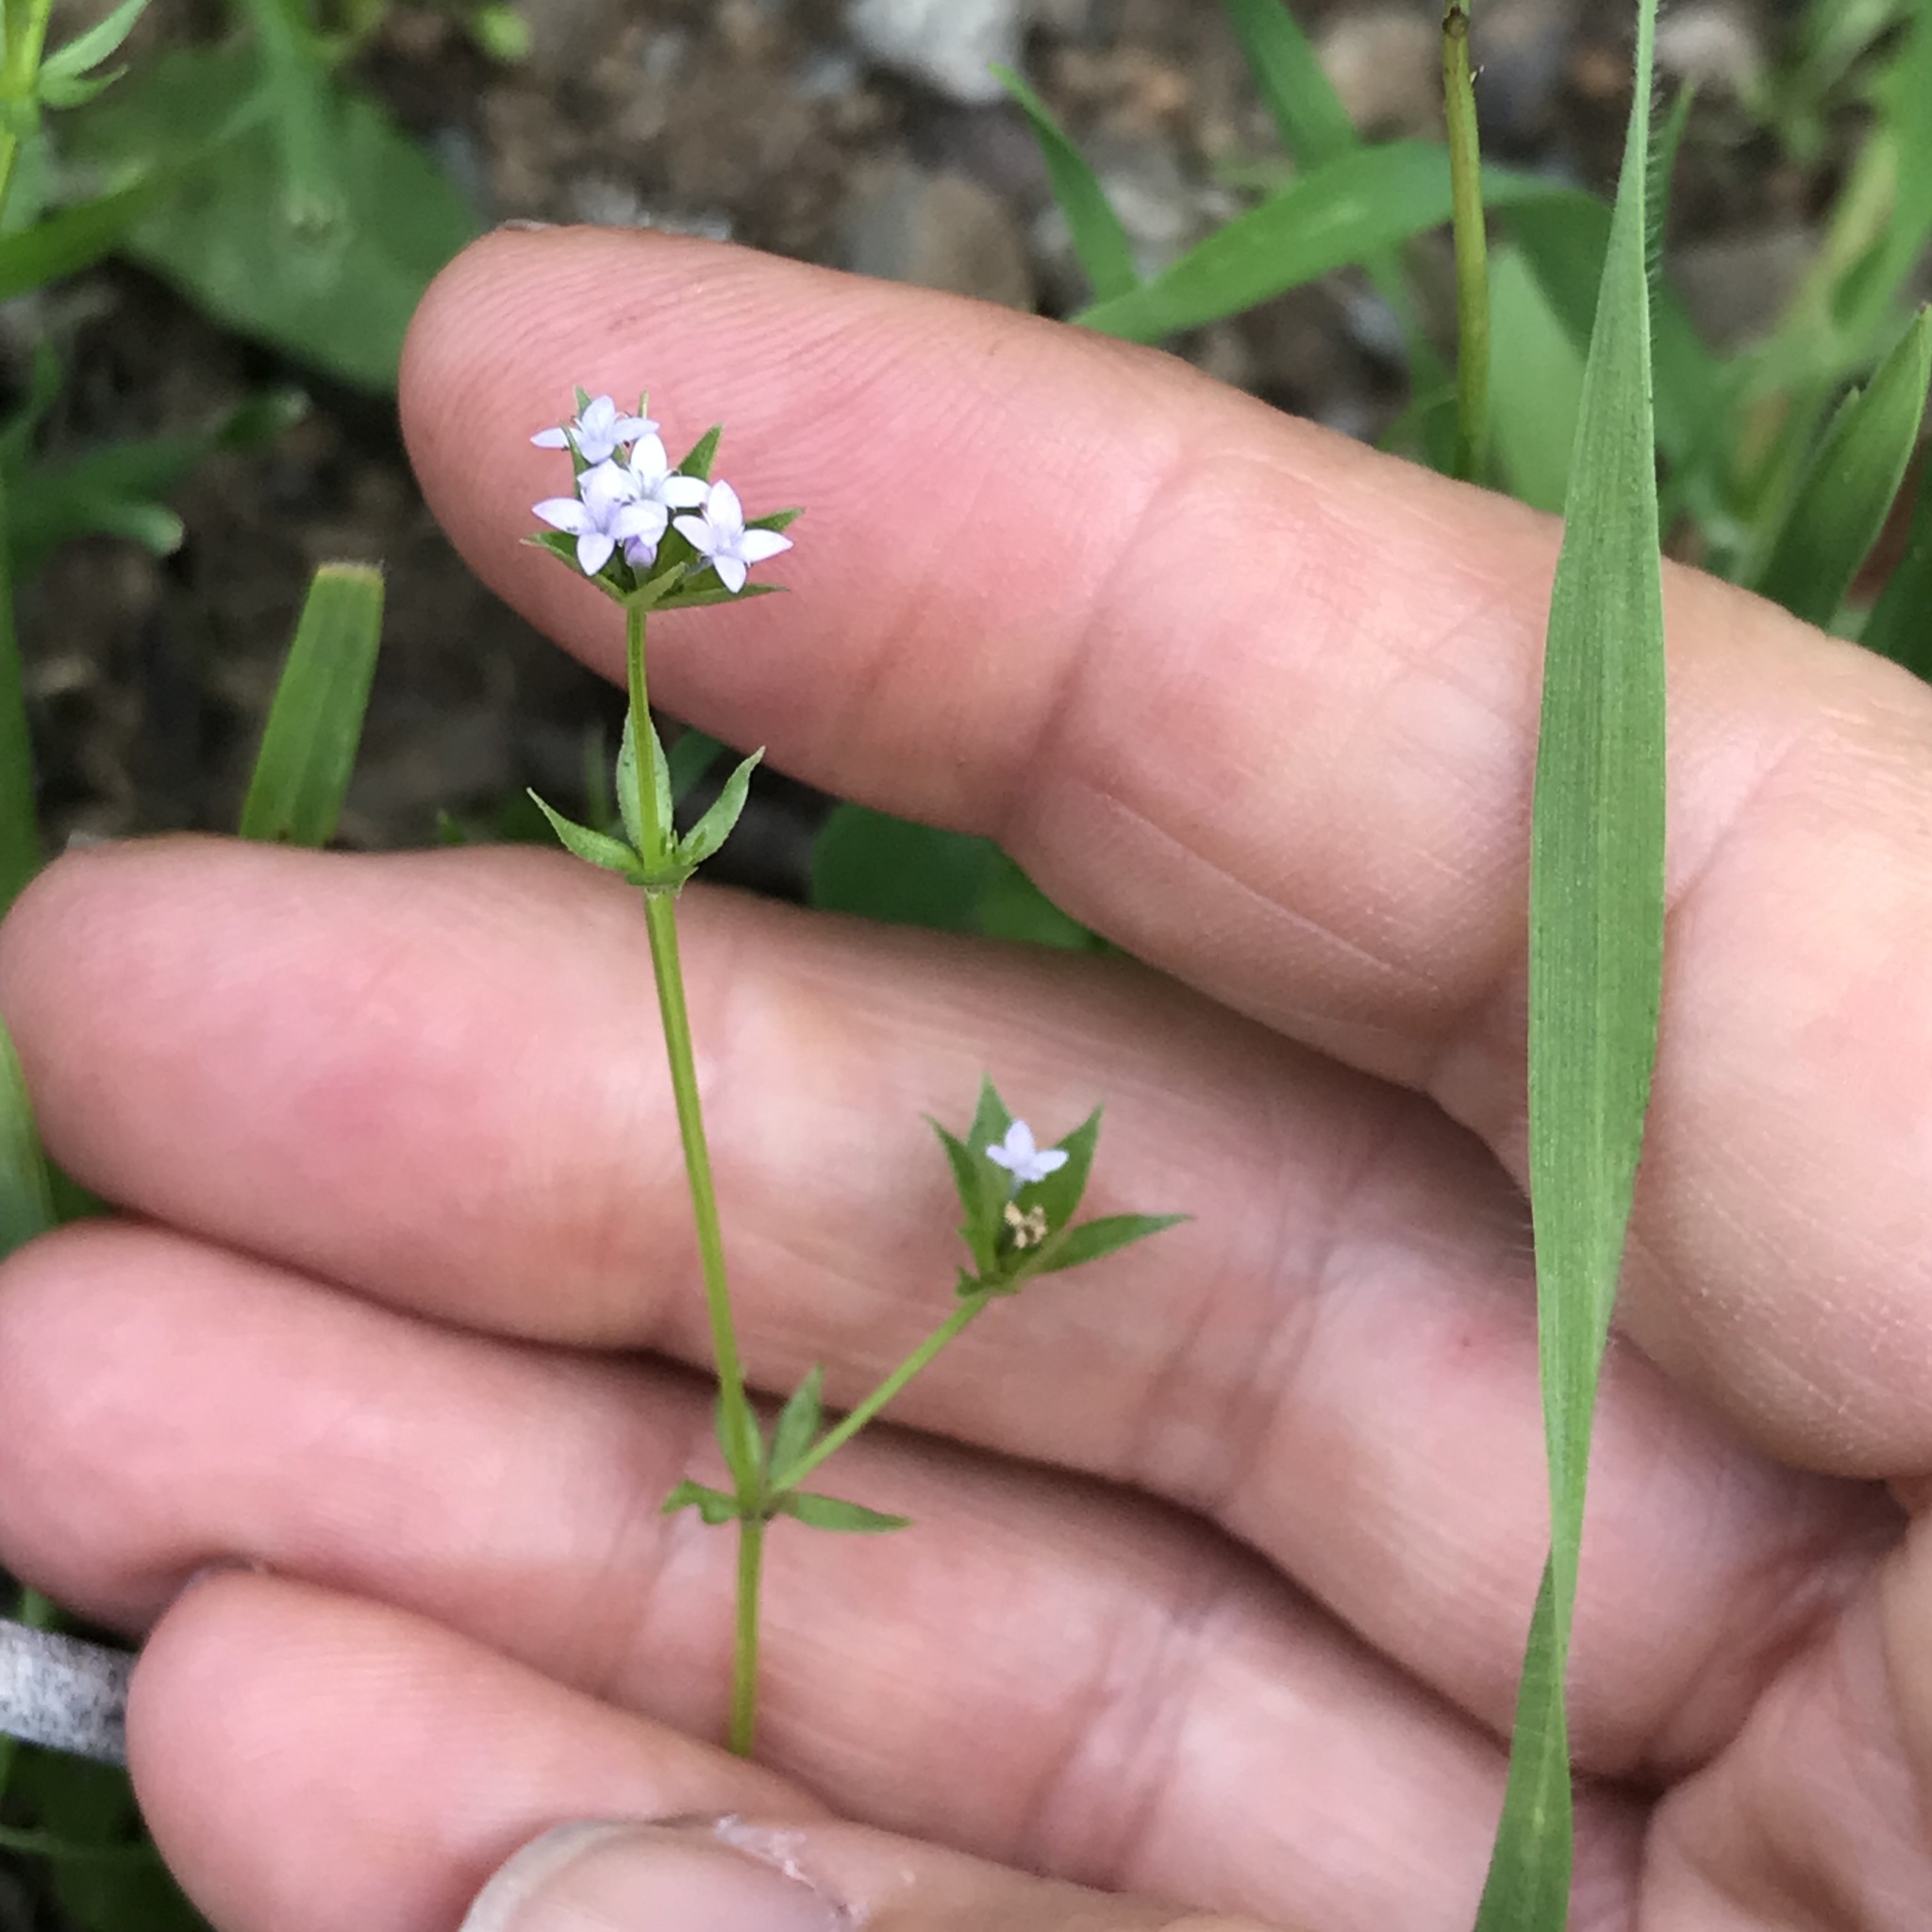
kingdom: Plantae
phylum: Tracheophyta
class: Magnoliopsida
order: Gentianales
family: Rubiaceae
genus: Sherardia
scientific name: Sherardia arvensis
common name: Field madder
